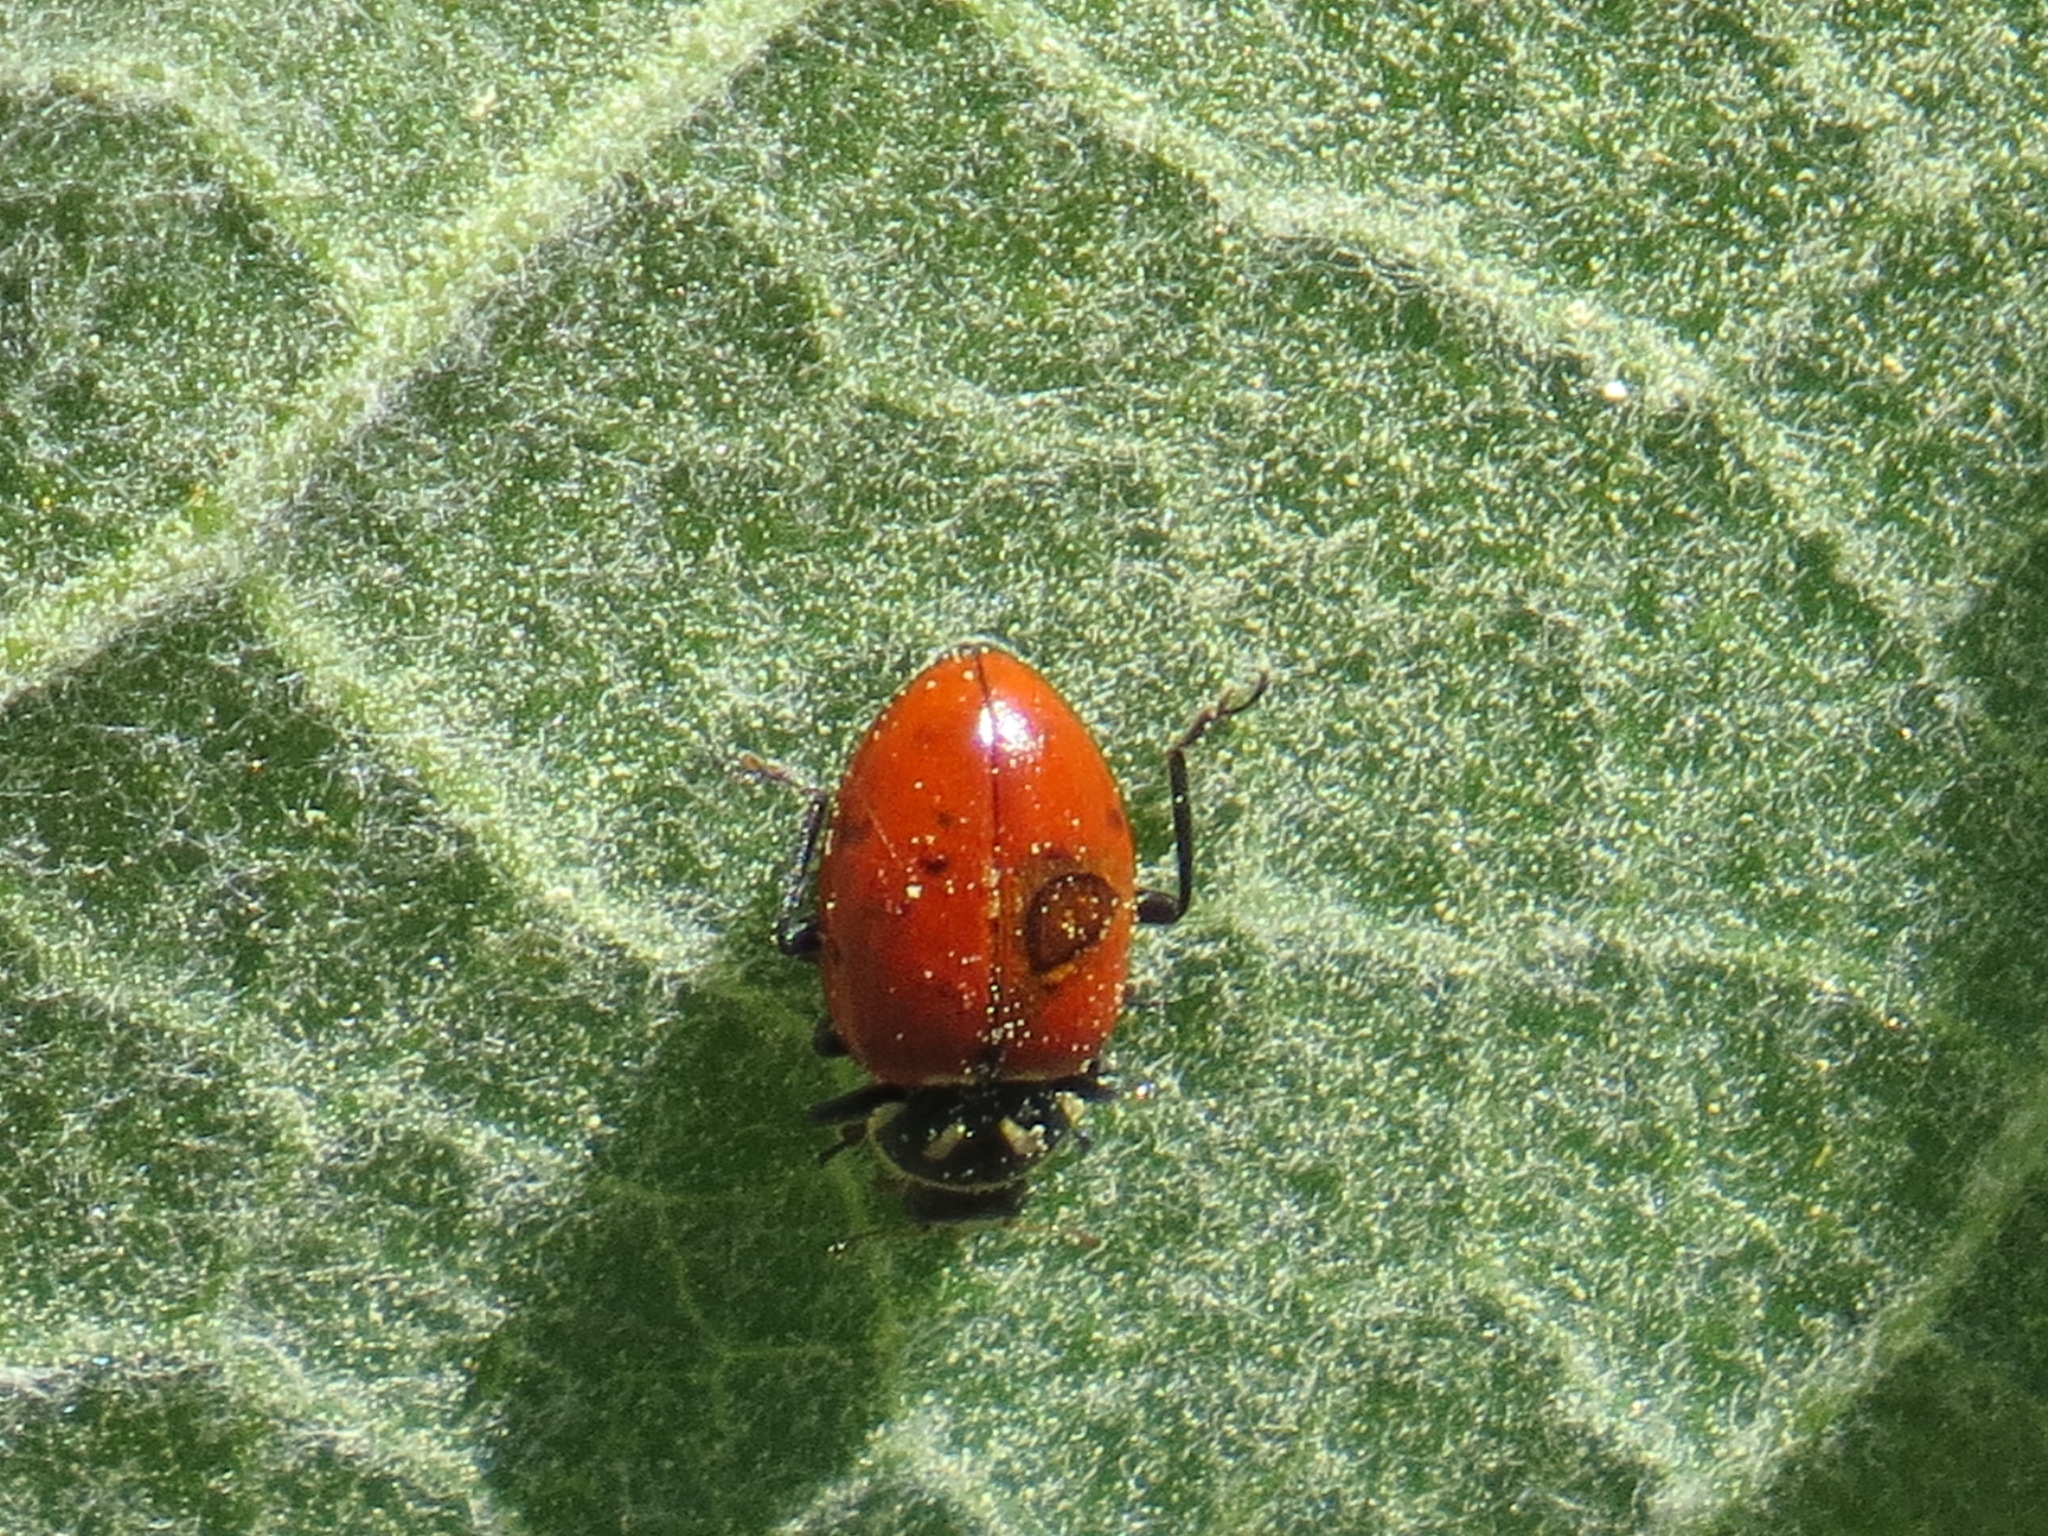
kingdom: Animalia
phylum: Arthropoda
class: Insecta
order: Coleoptera
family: Coccinellidae
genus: Hippodamia
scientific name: Hippodamia convergens
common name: Convergent lady beetle
